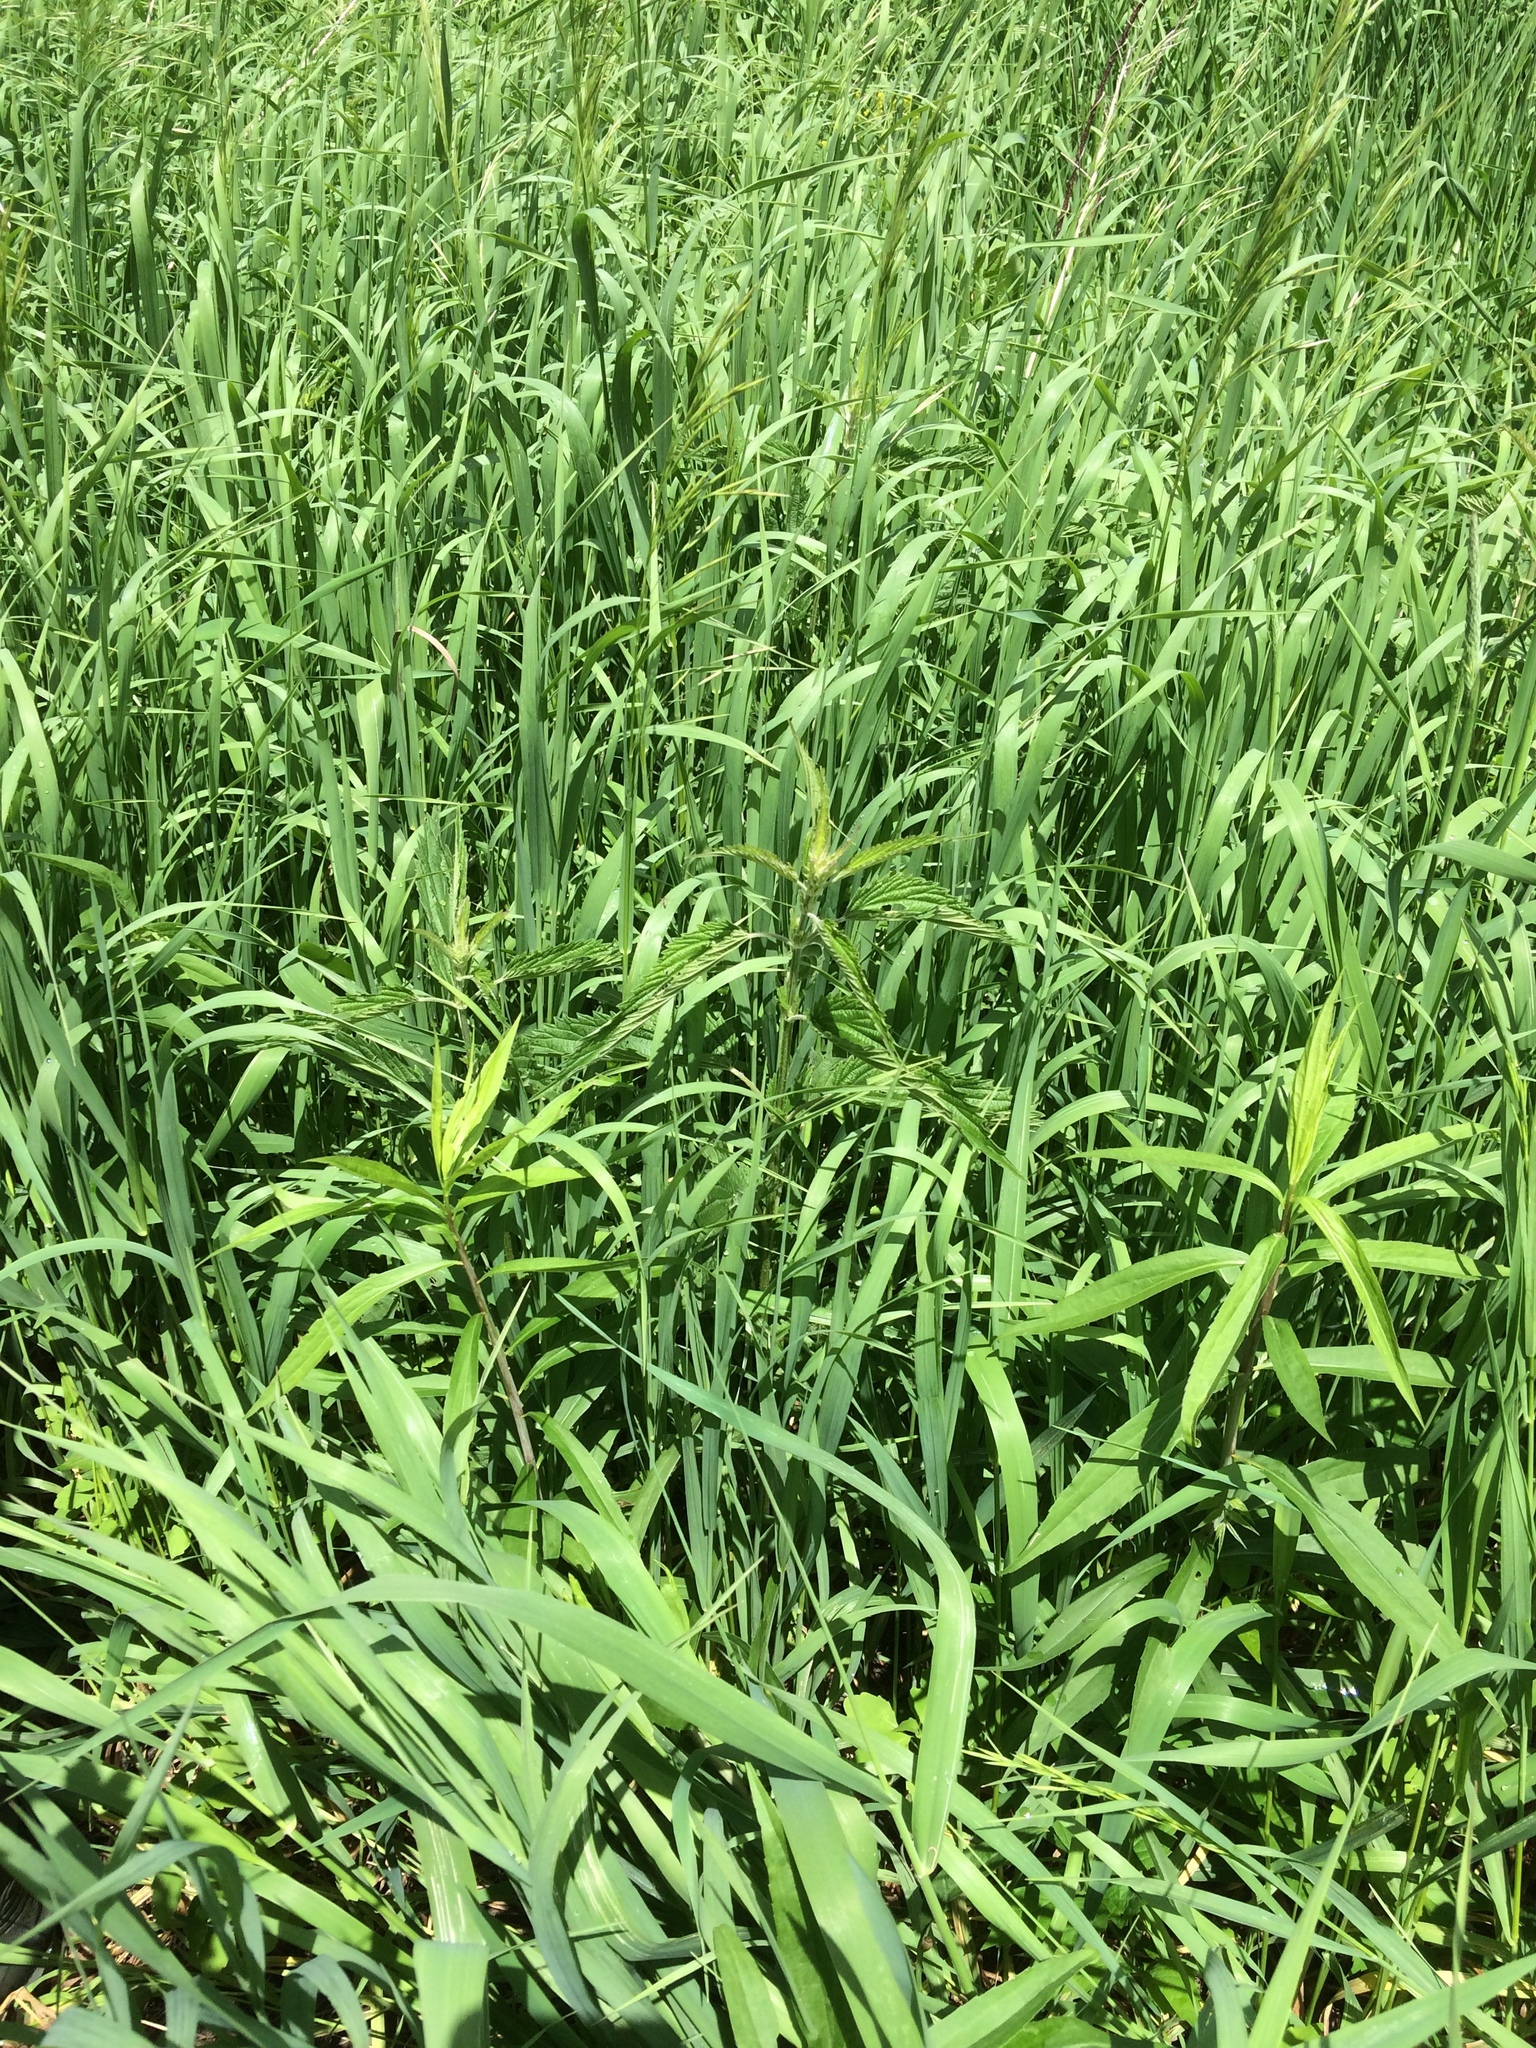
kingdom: Plantae
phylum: Tracheophyta
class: Magnoliopsida
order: Rosales
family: Urticaceae
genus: Urtica
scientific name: Urtica dioica
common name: Common nettle
